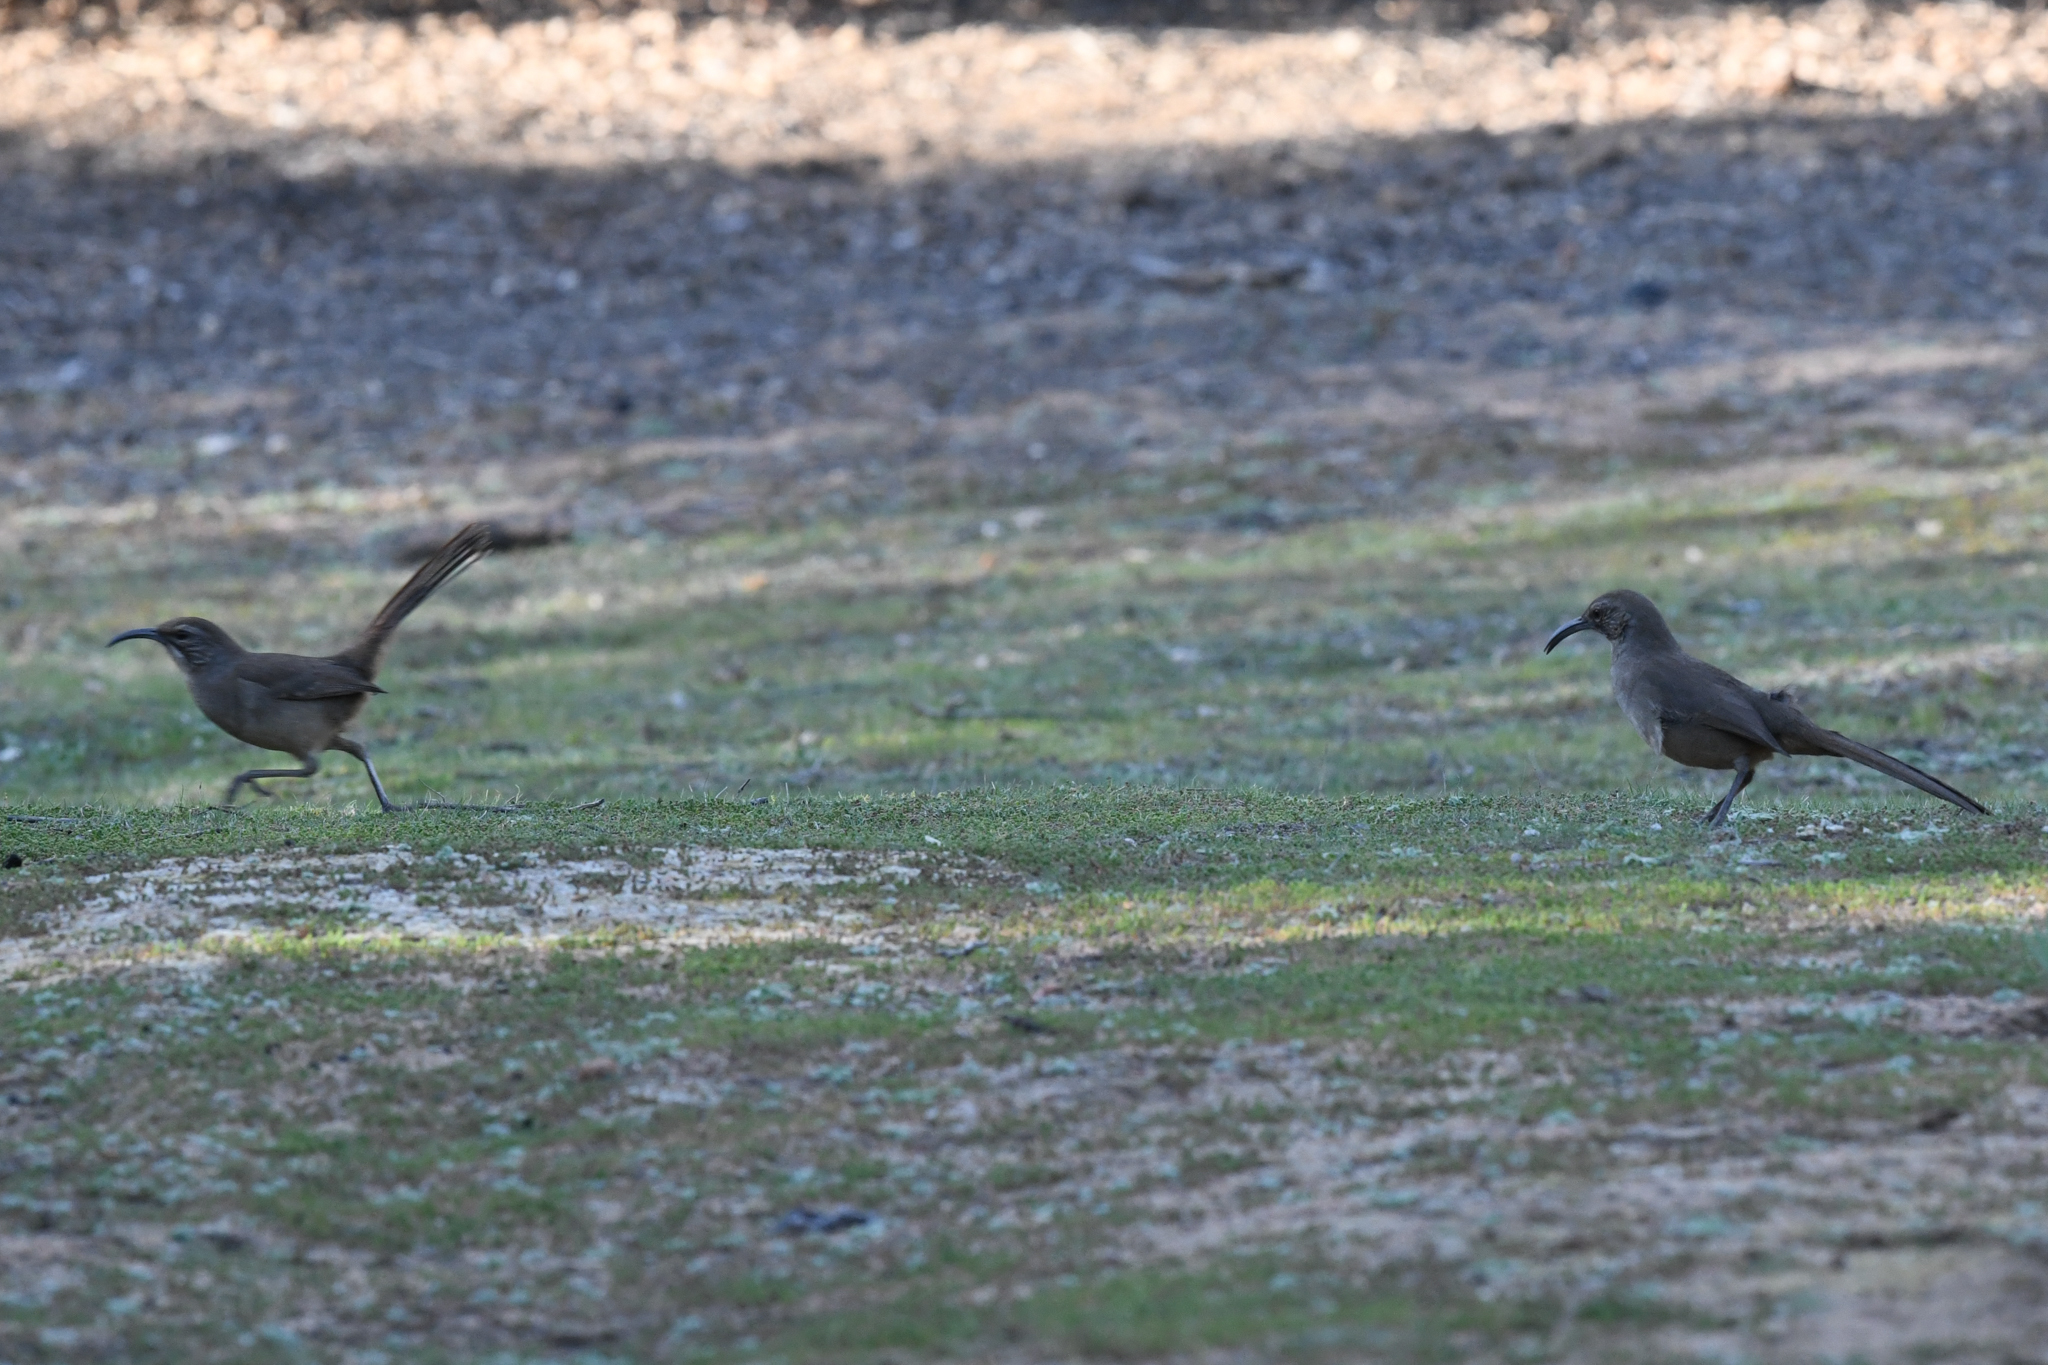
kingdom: Animalia
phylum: Chordata
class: Aves
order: Passeriformes
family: Mimidae
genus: Toxostoma
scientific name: Toxostoma redivivum
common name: California thrasher
